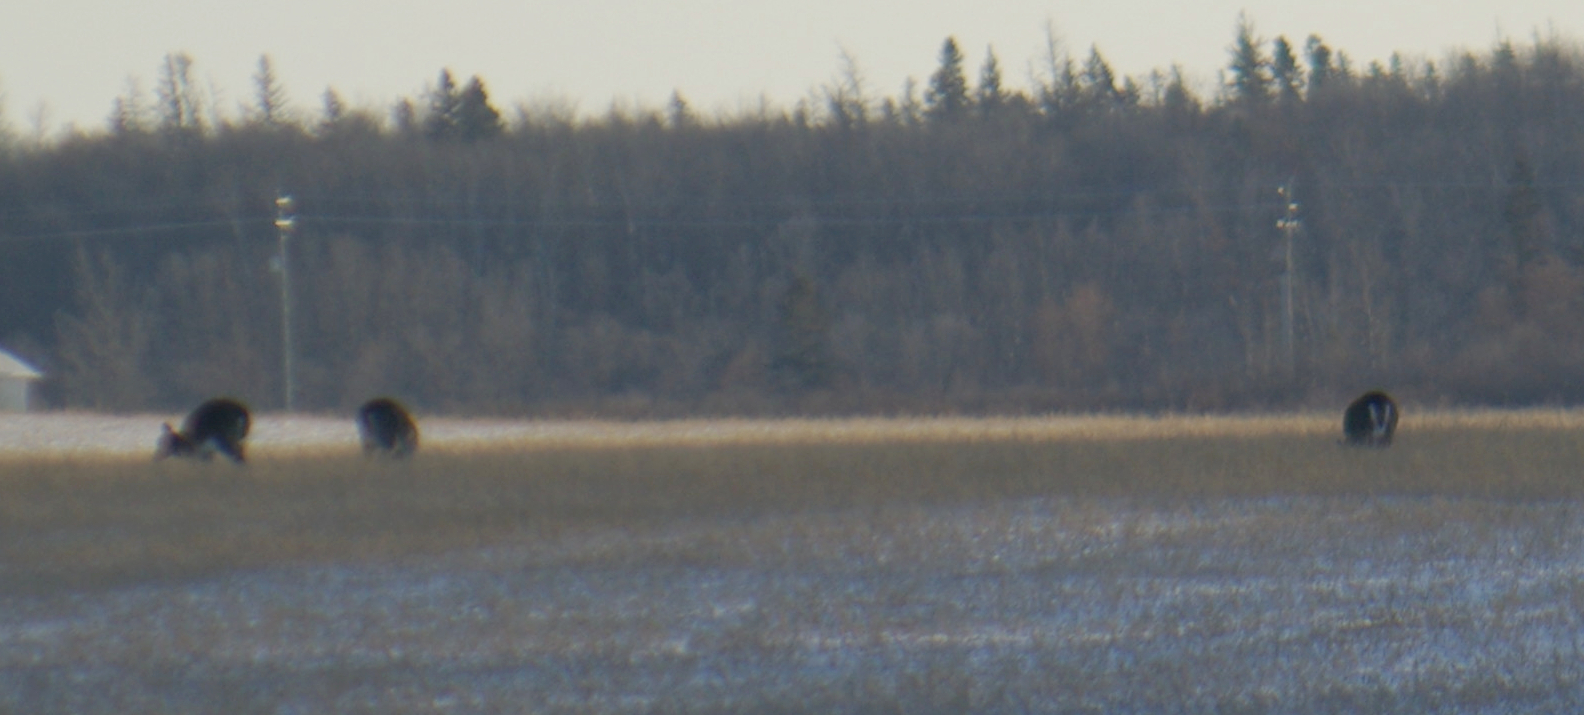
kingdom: Animalia
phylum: Chordata
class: Mammalia
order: Artiodactyla
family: Cervidae
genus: Odocoileus
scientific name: Odocoileus virginianus
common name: White-tailed deer
